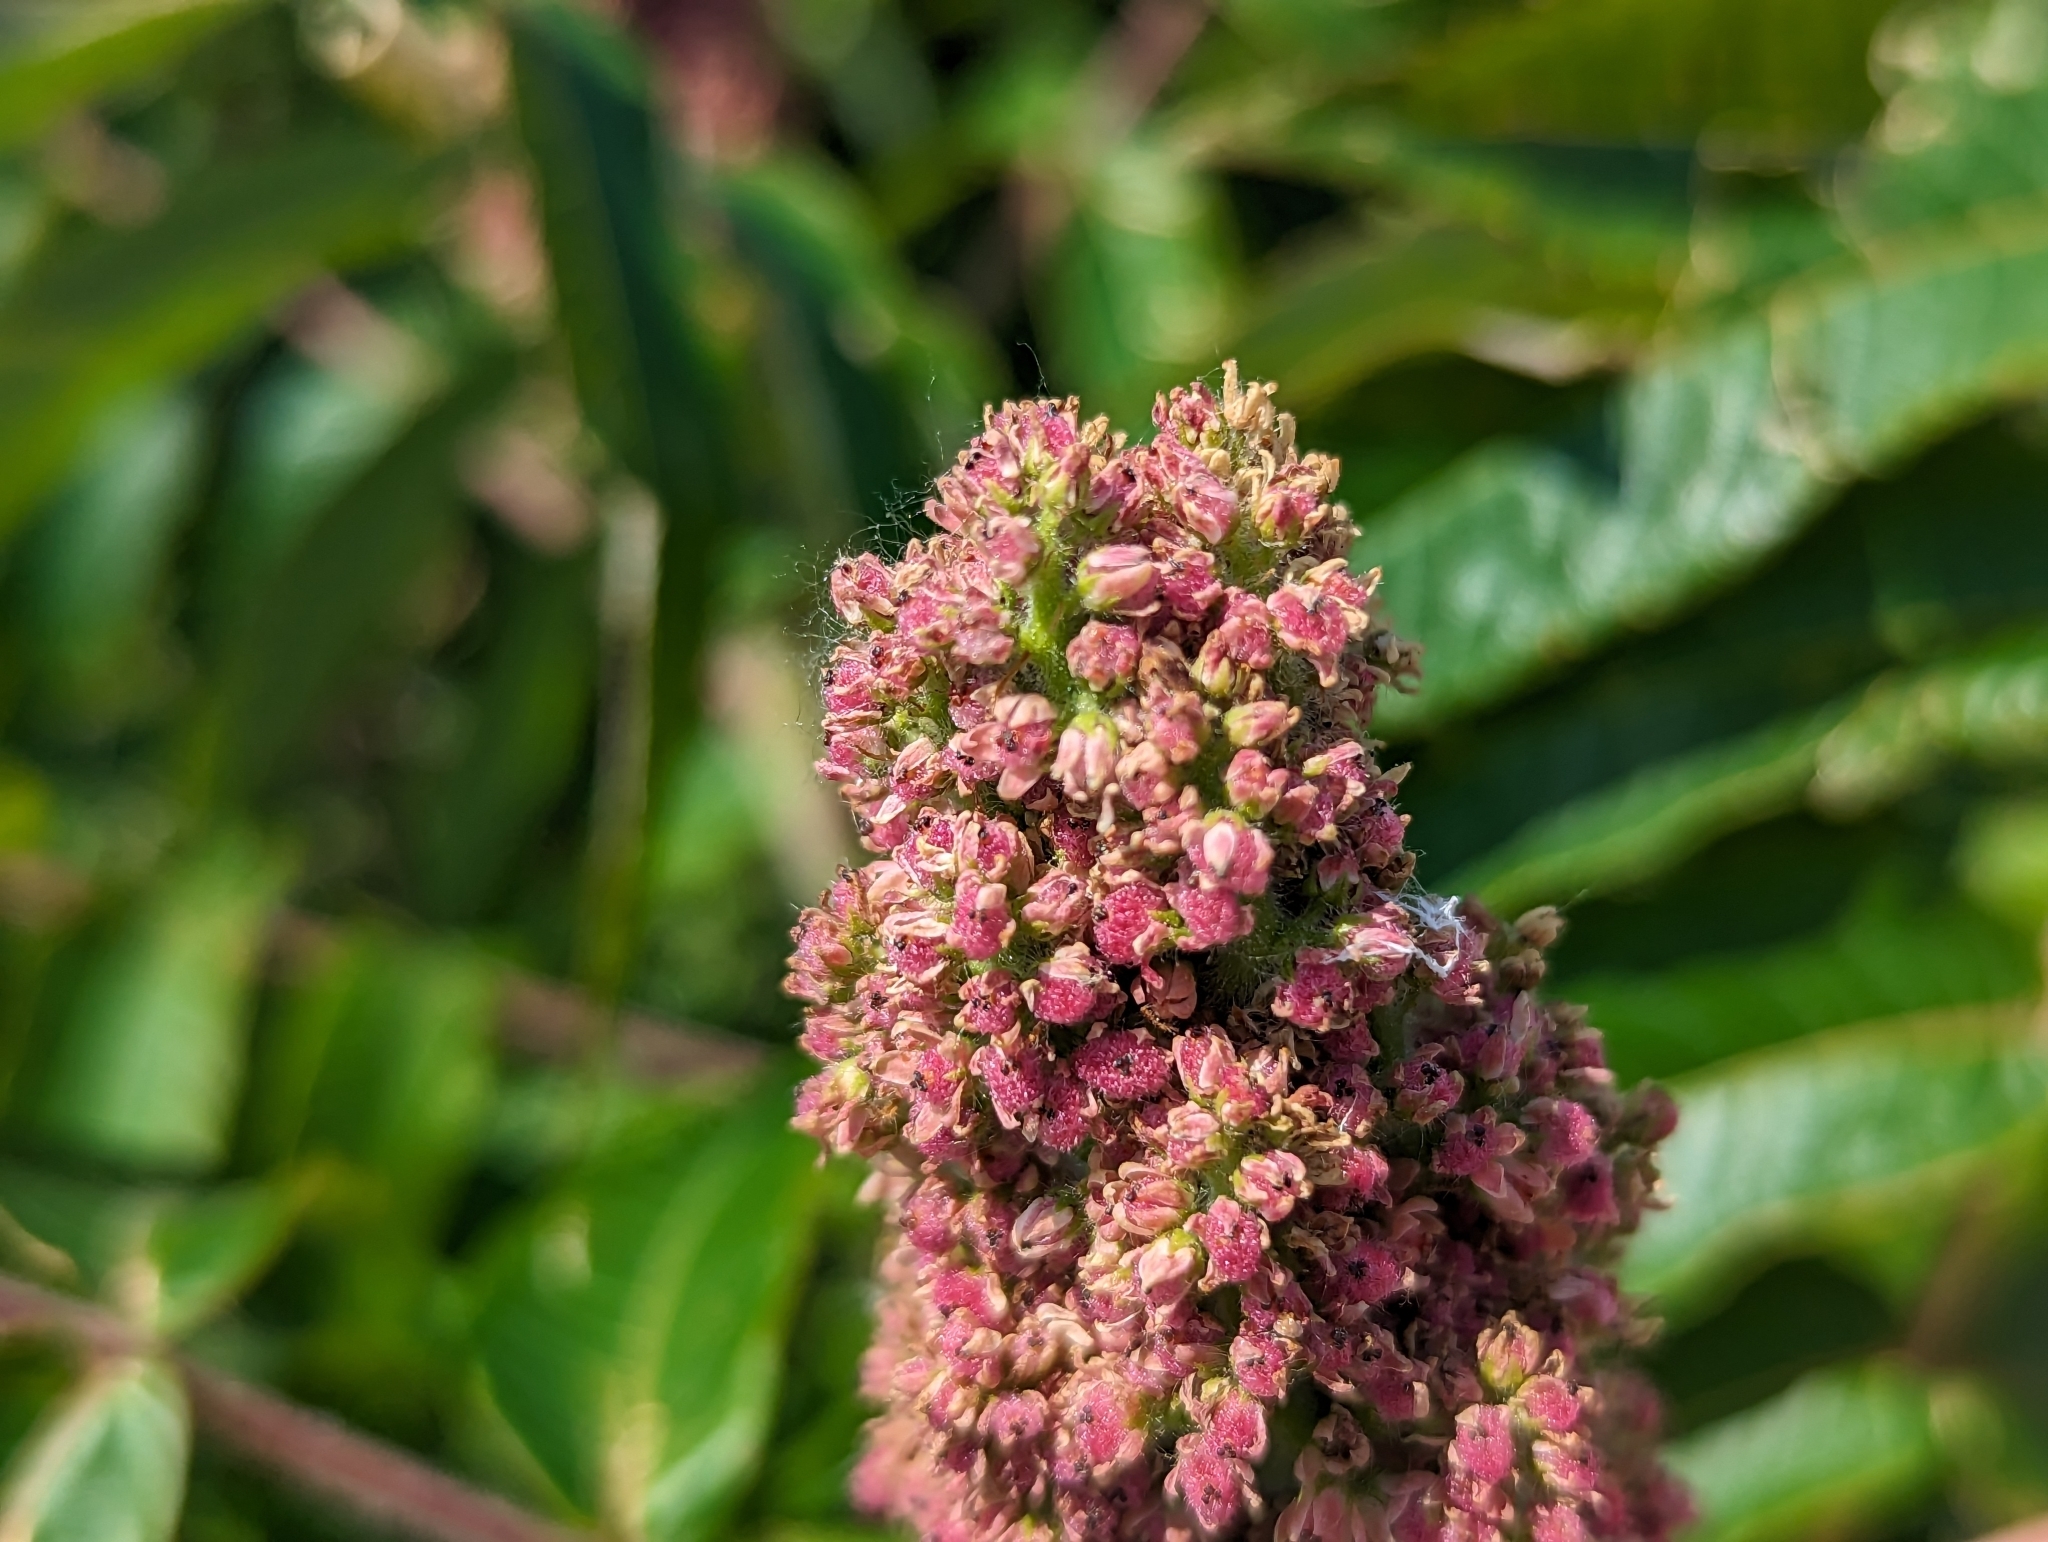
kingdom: Plantae
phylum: Tracheophyta
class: Magnoliopsida
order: Sapindales
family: Anacardiaceae
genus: Rhus
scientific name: Rhus typhina
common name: Staghorn sumac
